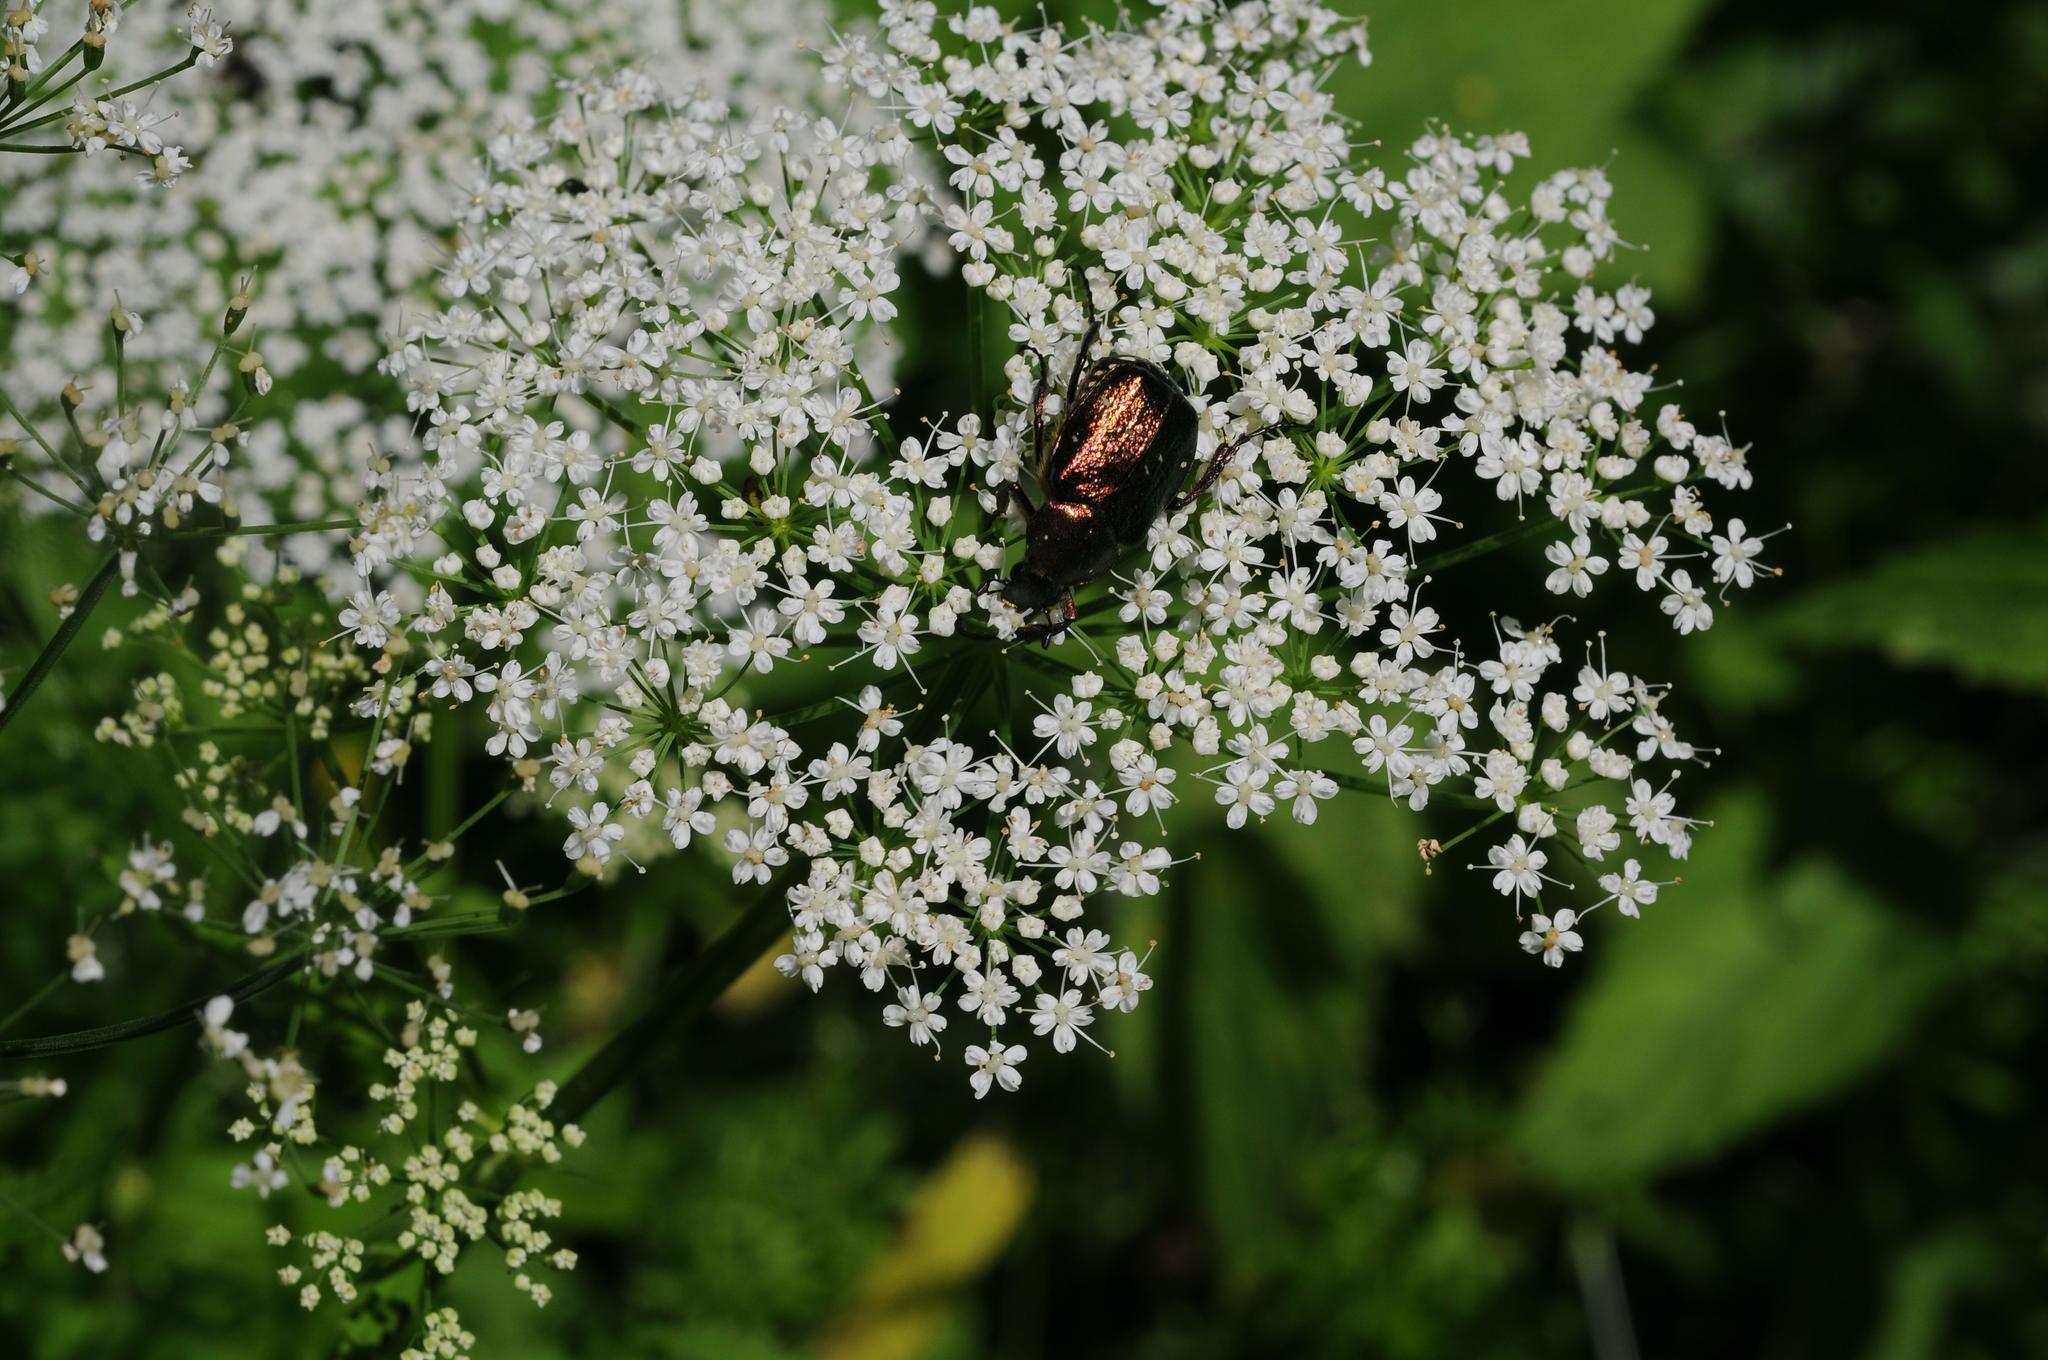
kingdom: Animalia
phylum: Arthropoda
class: Insecta
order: Coleoptera
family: Scarabaeidae
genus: Gnorimus
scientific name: Gnorimus nobilis
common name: Noble chafer
